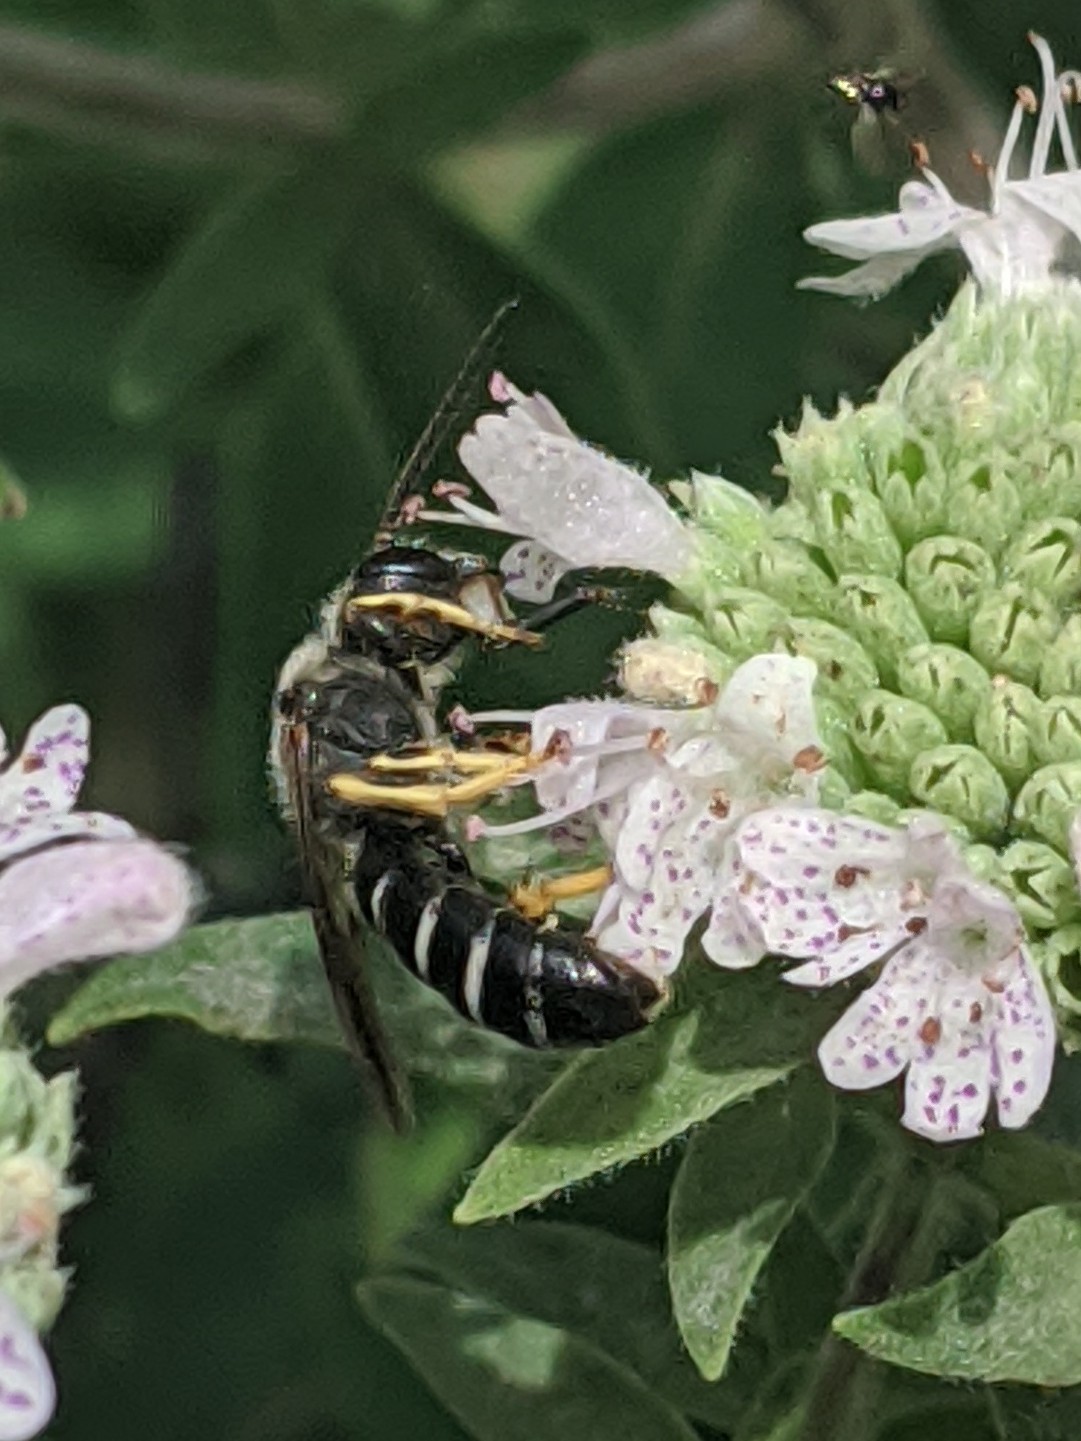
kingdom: Animalia
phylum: Arthropoda
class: Insecta
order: Hymenoptera
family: Halictidae
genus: Halictus
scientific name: Halictus rubicundus
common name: Orange-legged furrow bee
